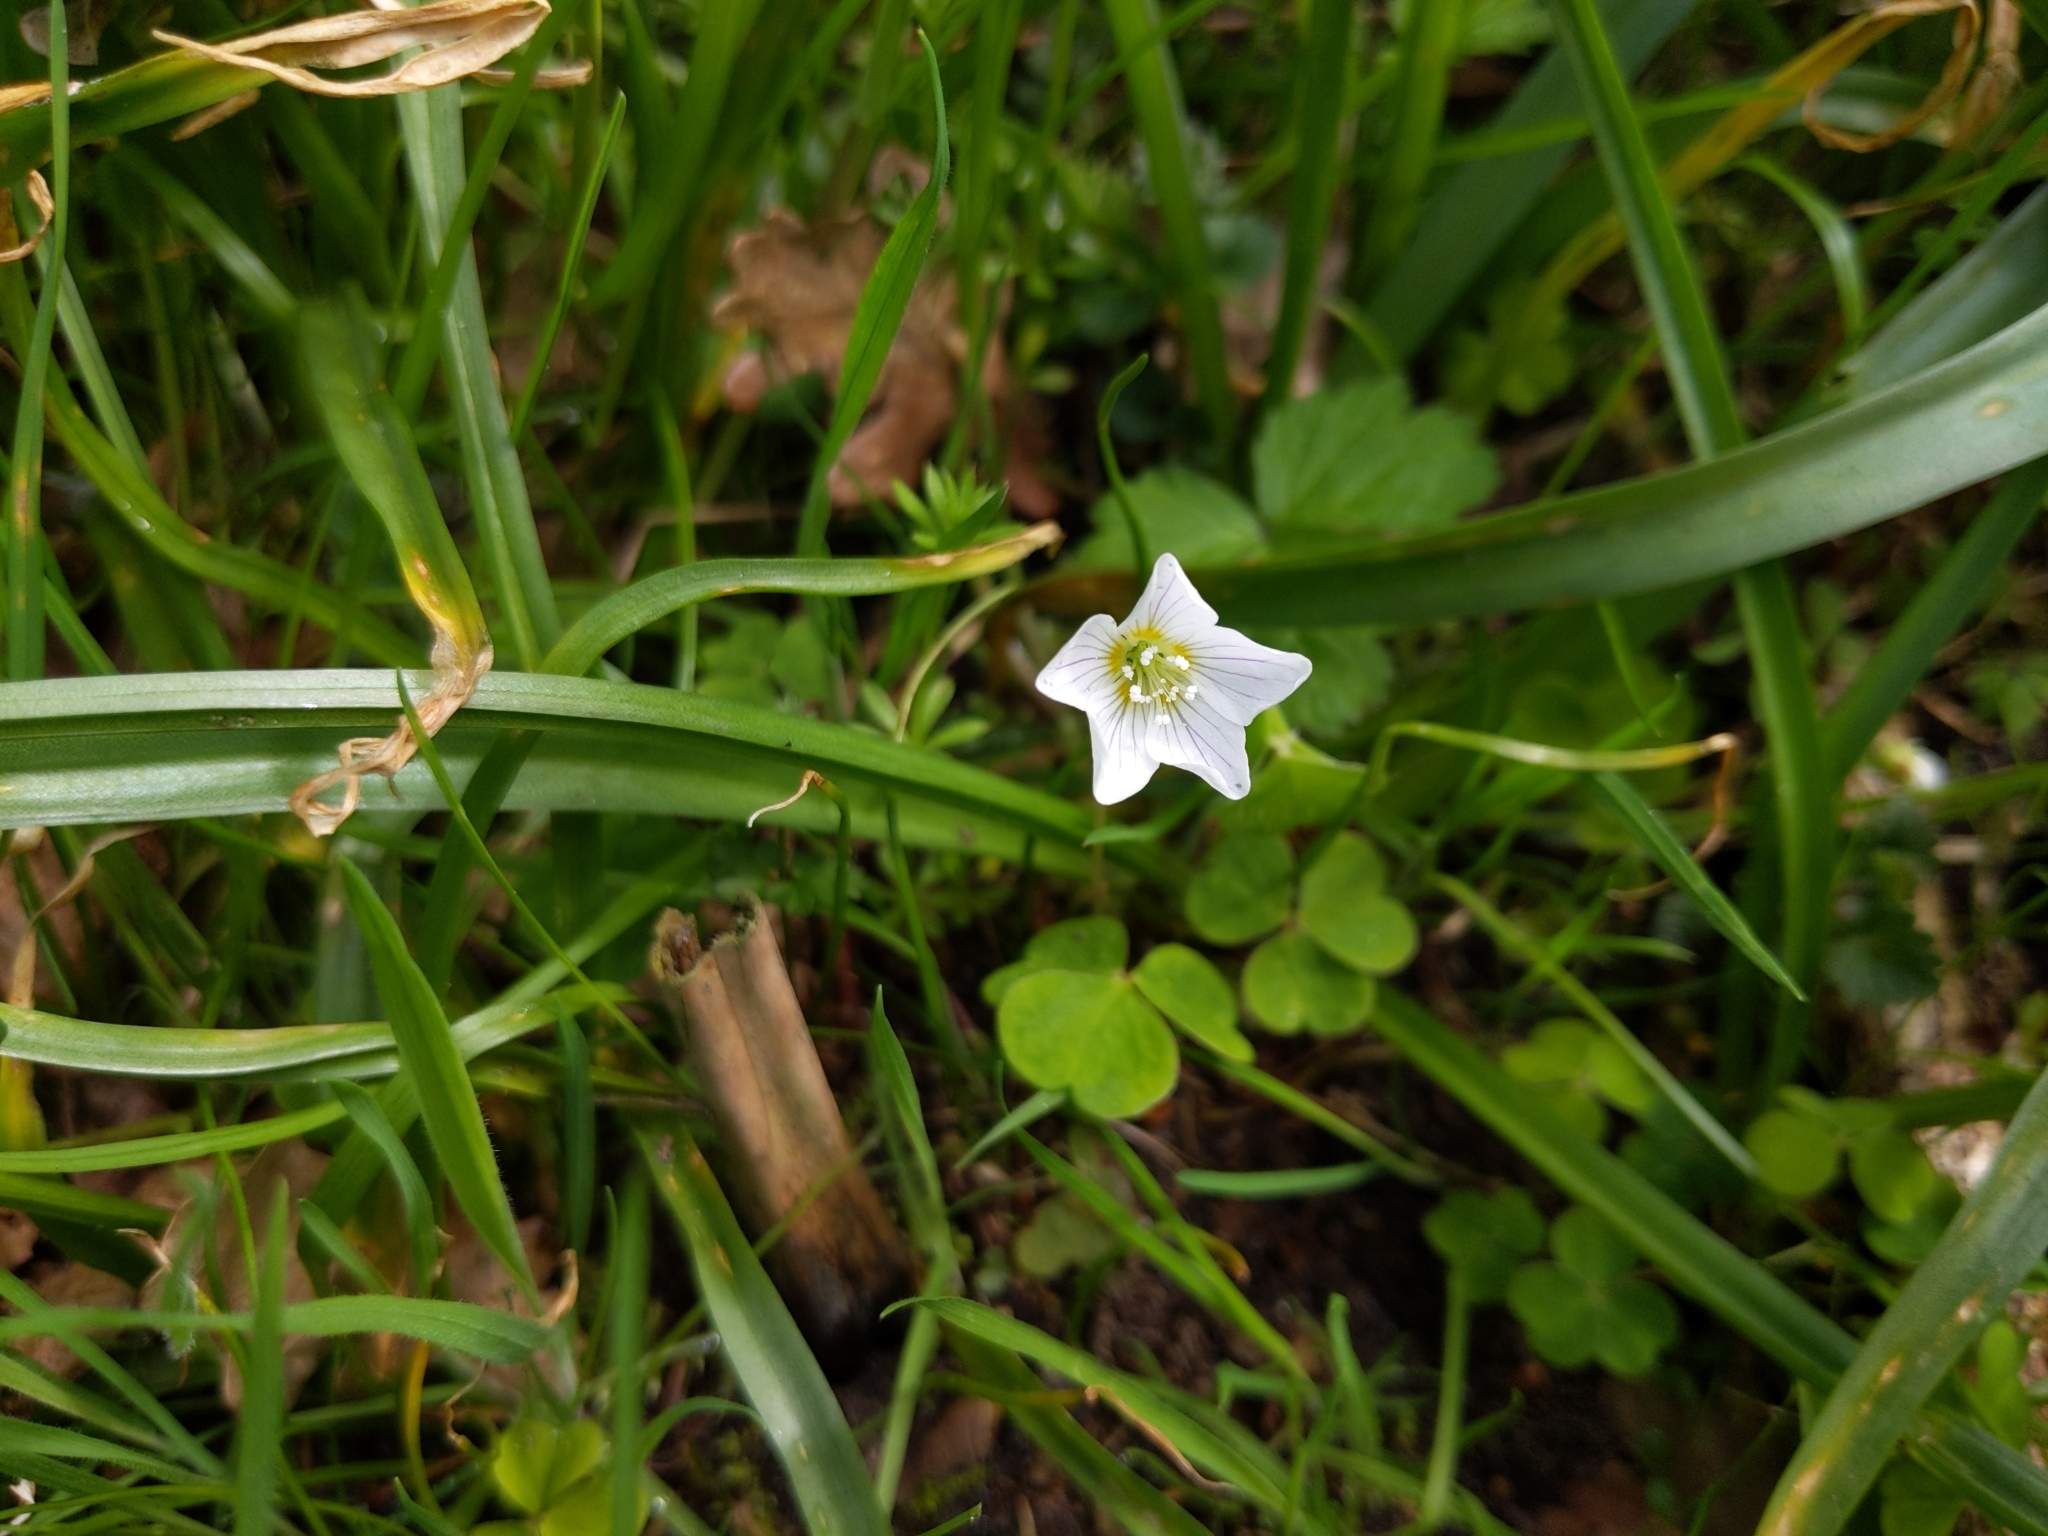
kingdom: Plantae
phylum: Tracheophyta
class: Magnoliopsida
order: Oxalidales
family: Oxalidaceae
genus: Oxalis
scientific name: Oxalis acetosella
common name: Wood-sorrel
